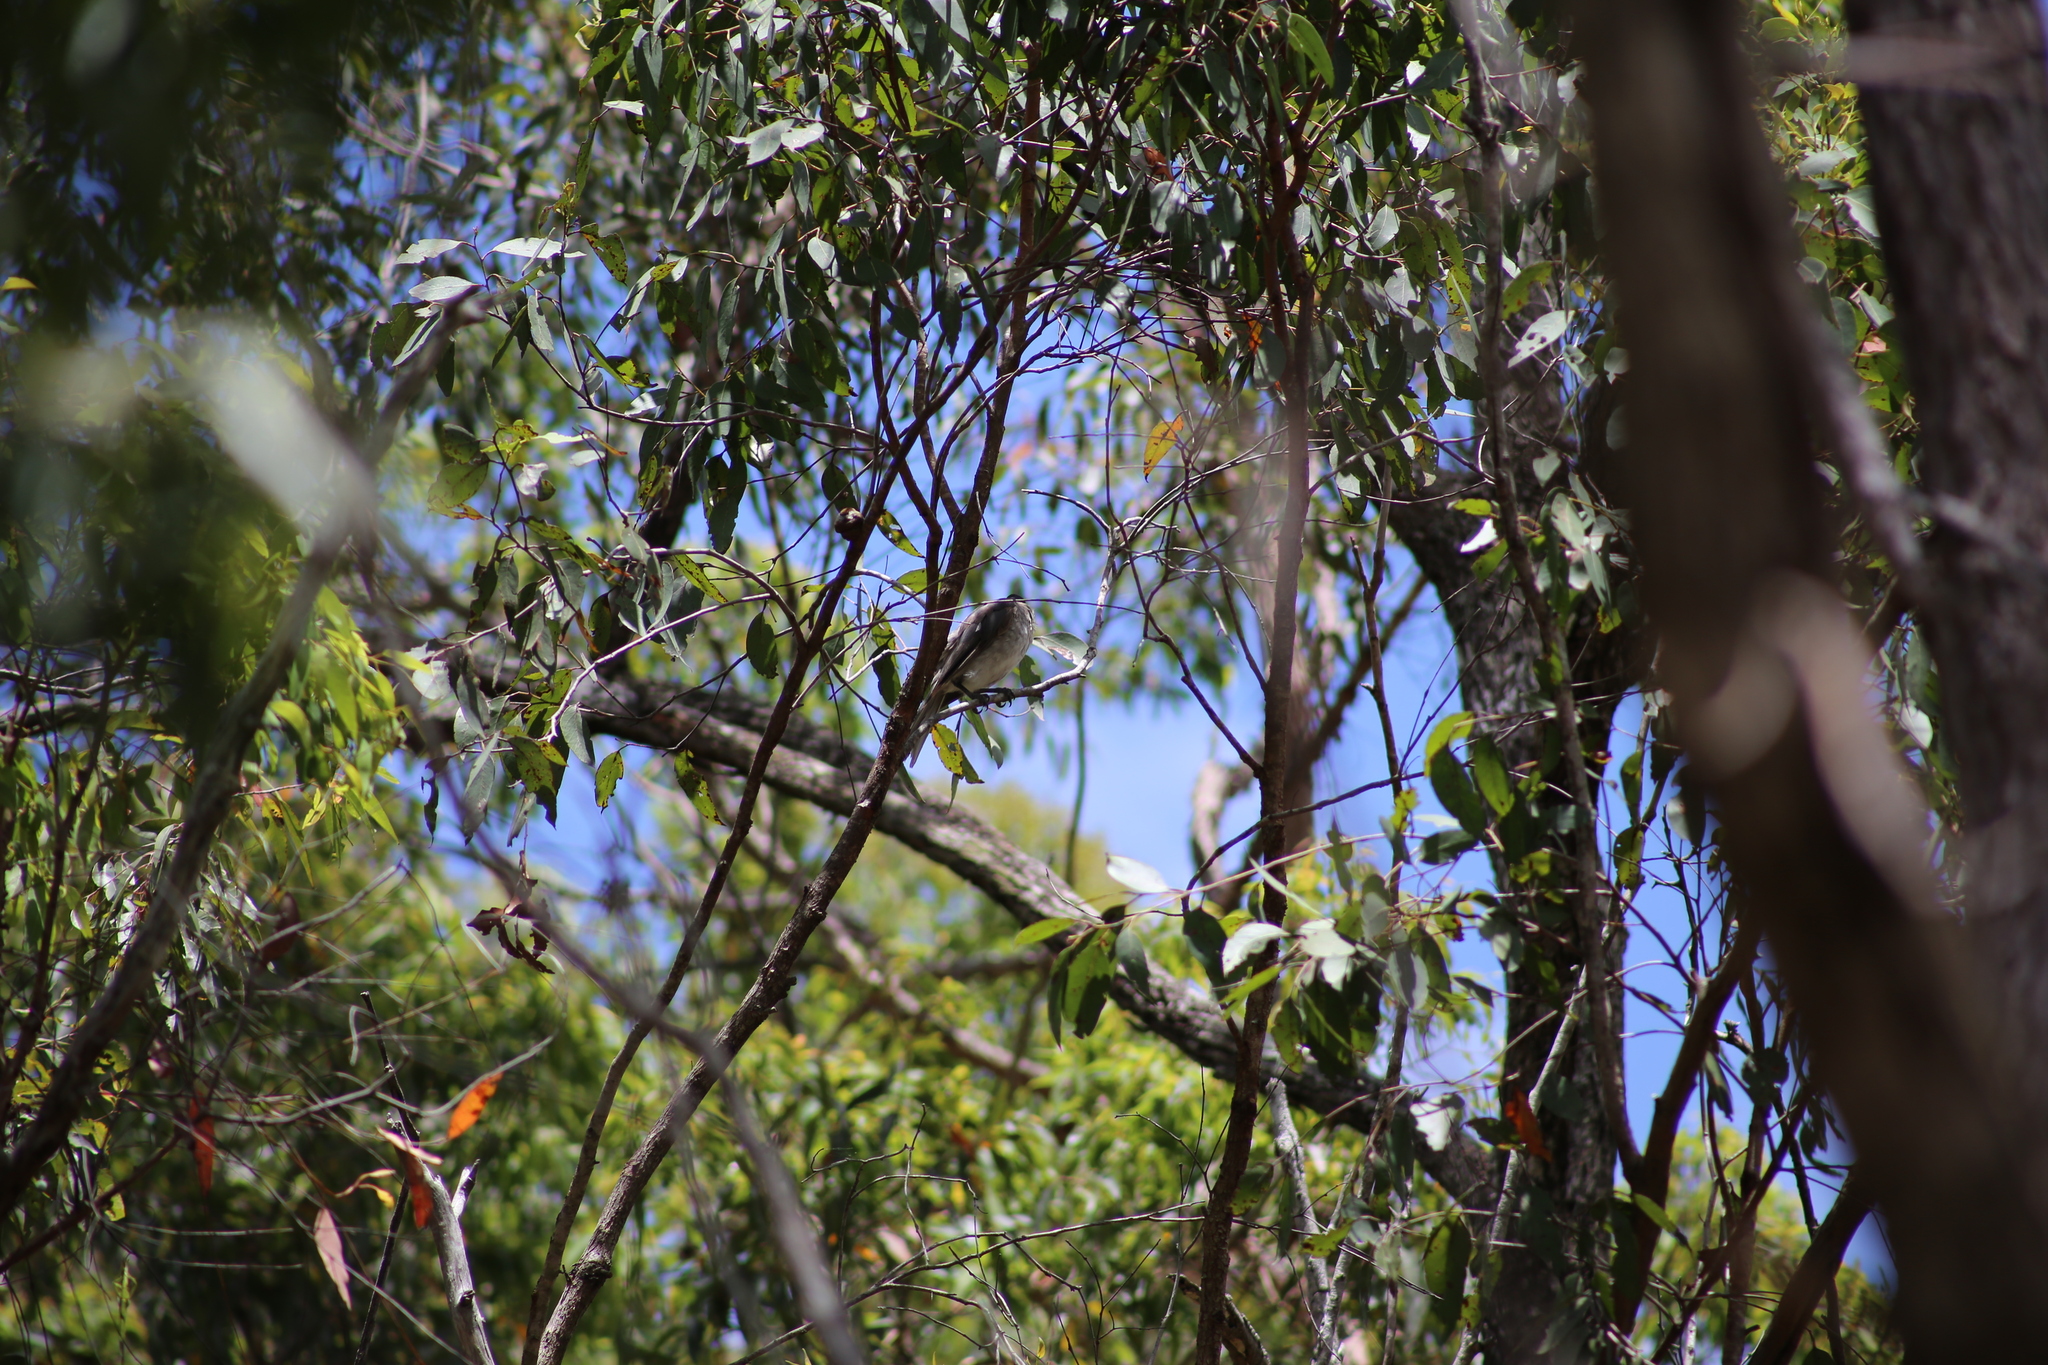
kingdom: Animalia
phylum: Chordata
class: Aves
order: Passeriformes
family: Meliphagidae
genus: Philemon
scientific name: Philemon corniculatus
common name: Noisy friarbird
